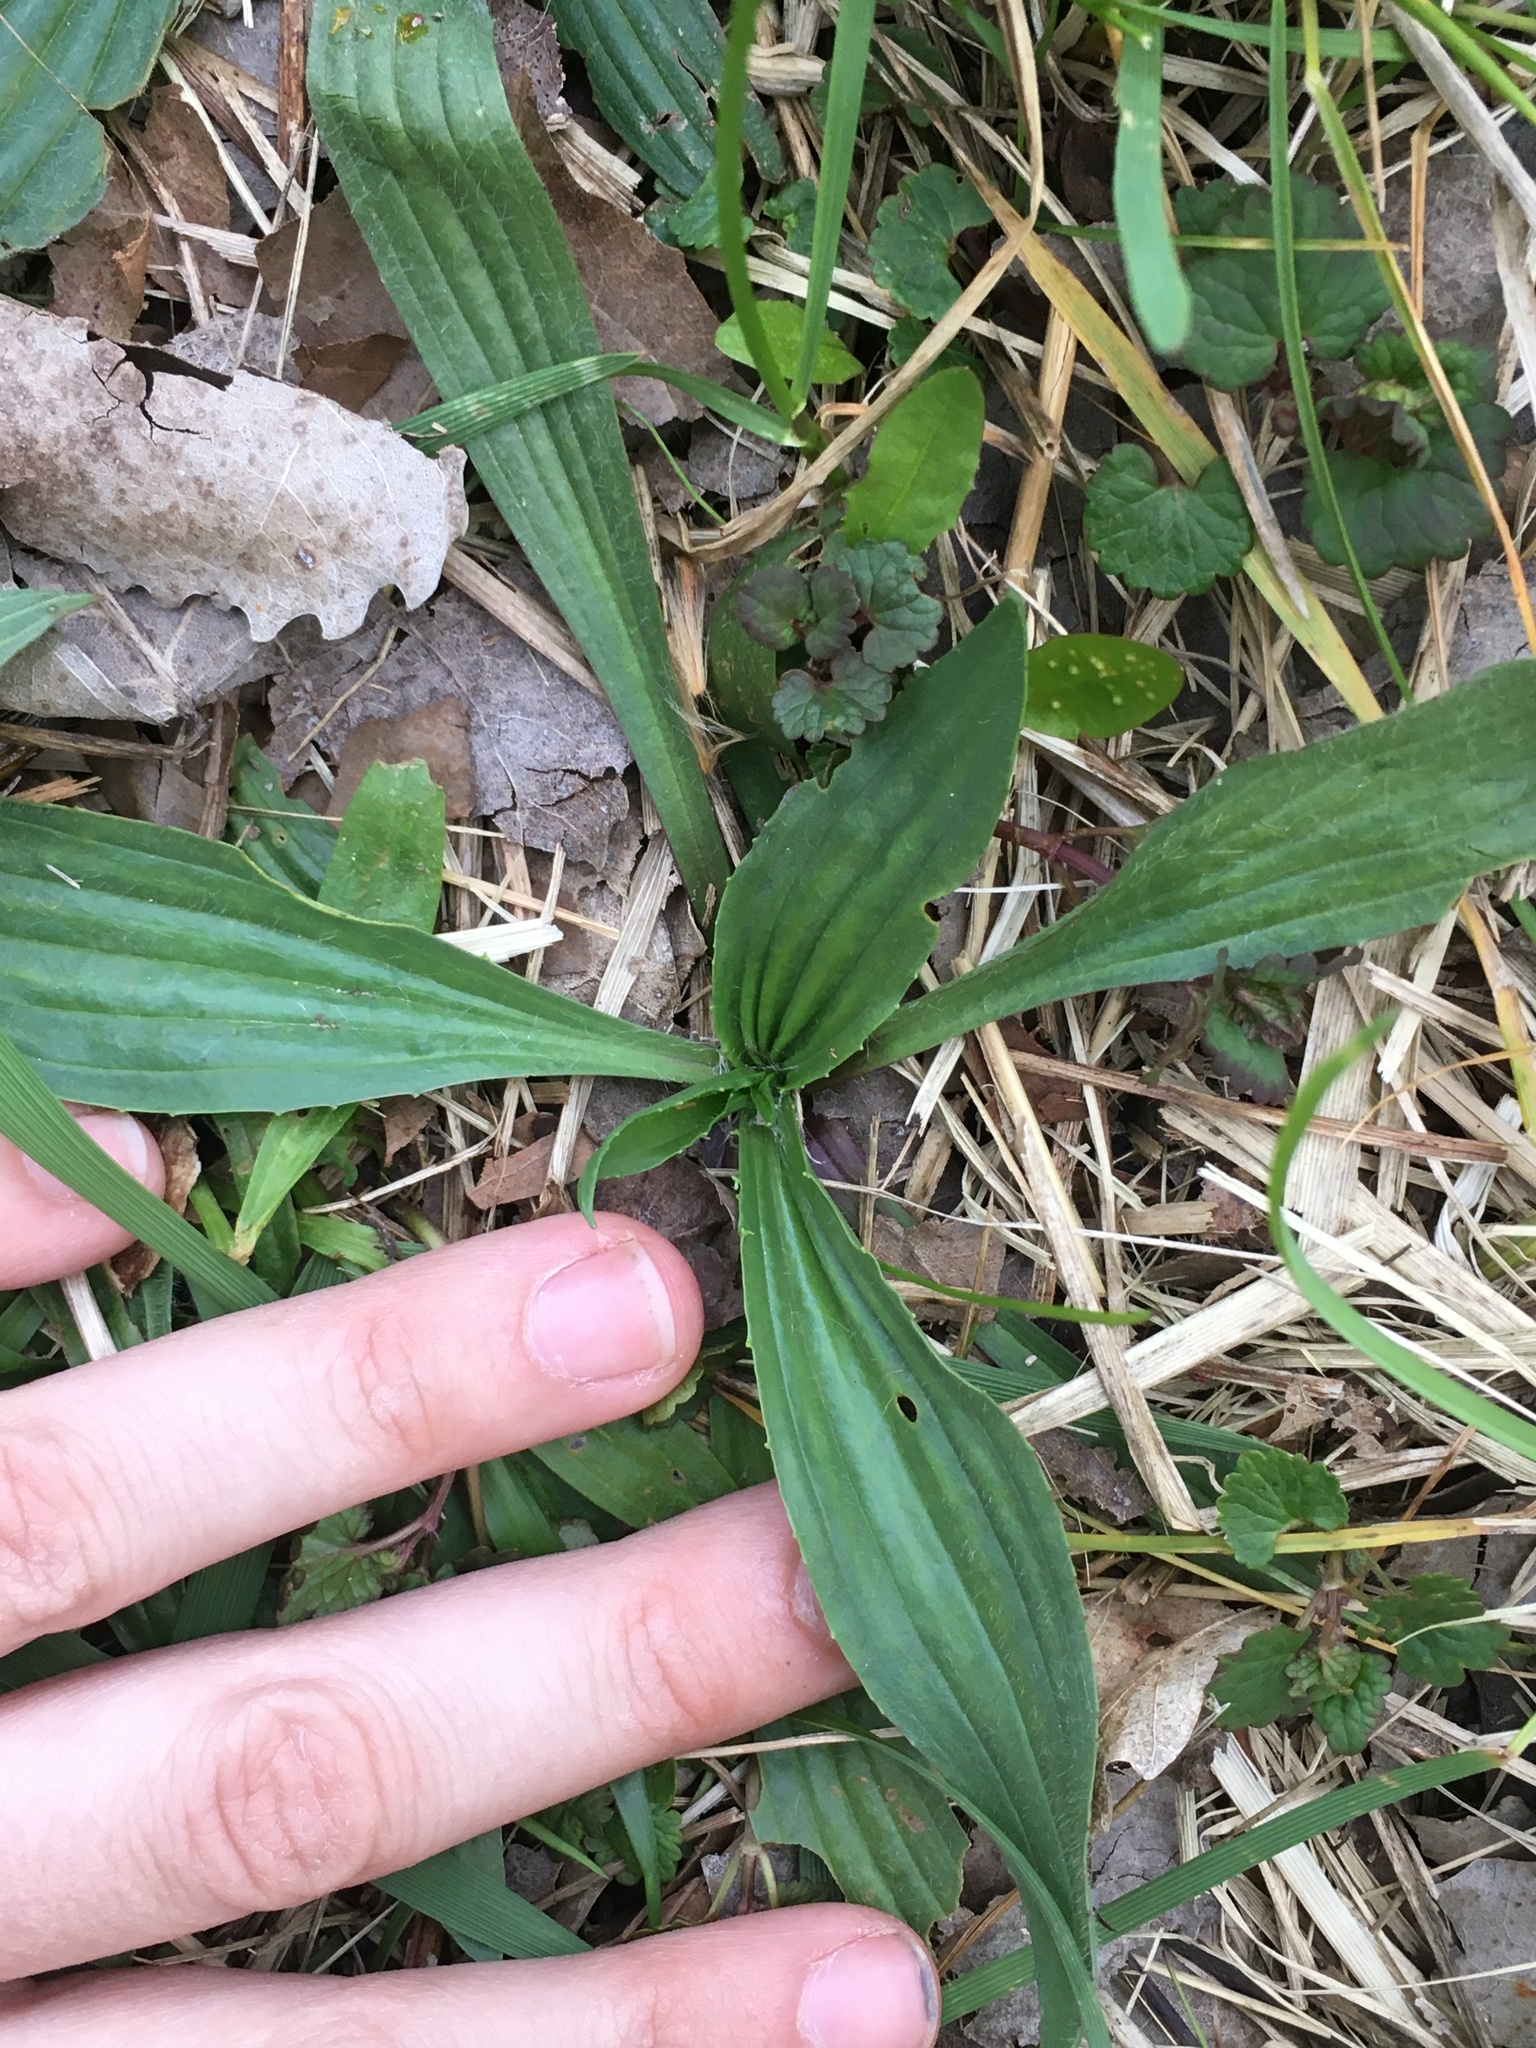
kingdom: Plantae
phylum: Tracheophyta
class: Magnoliopsida
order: Lamiales
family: Plantaginaceae
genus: Plantago
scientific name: Plantago lanceolata
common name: Ribwort plantain
